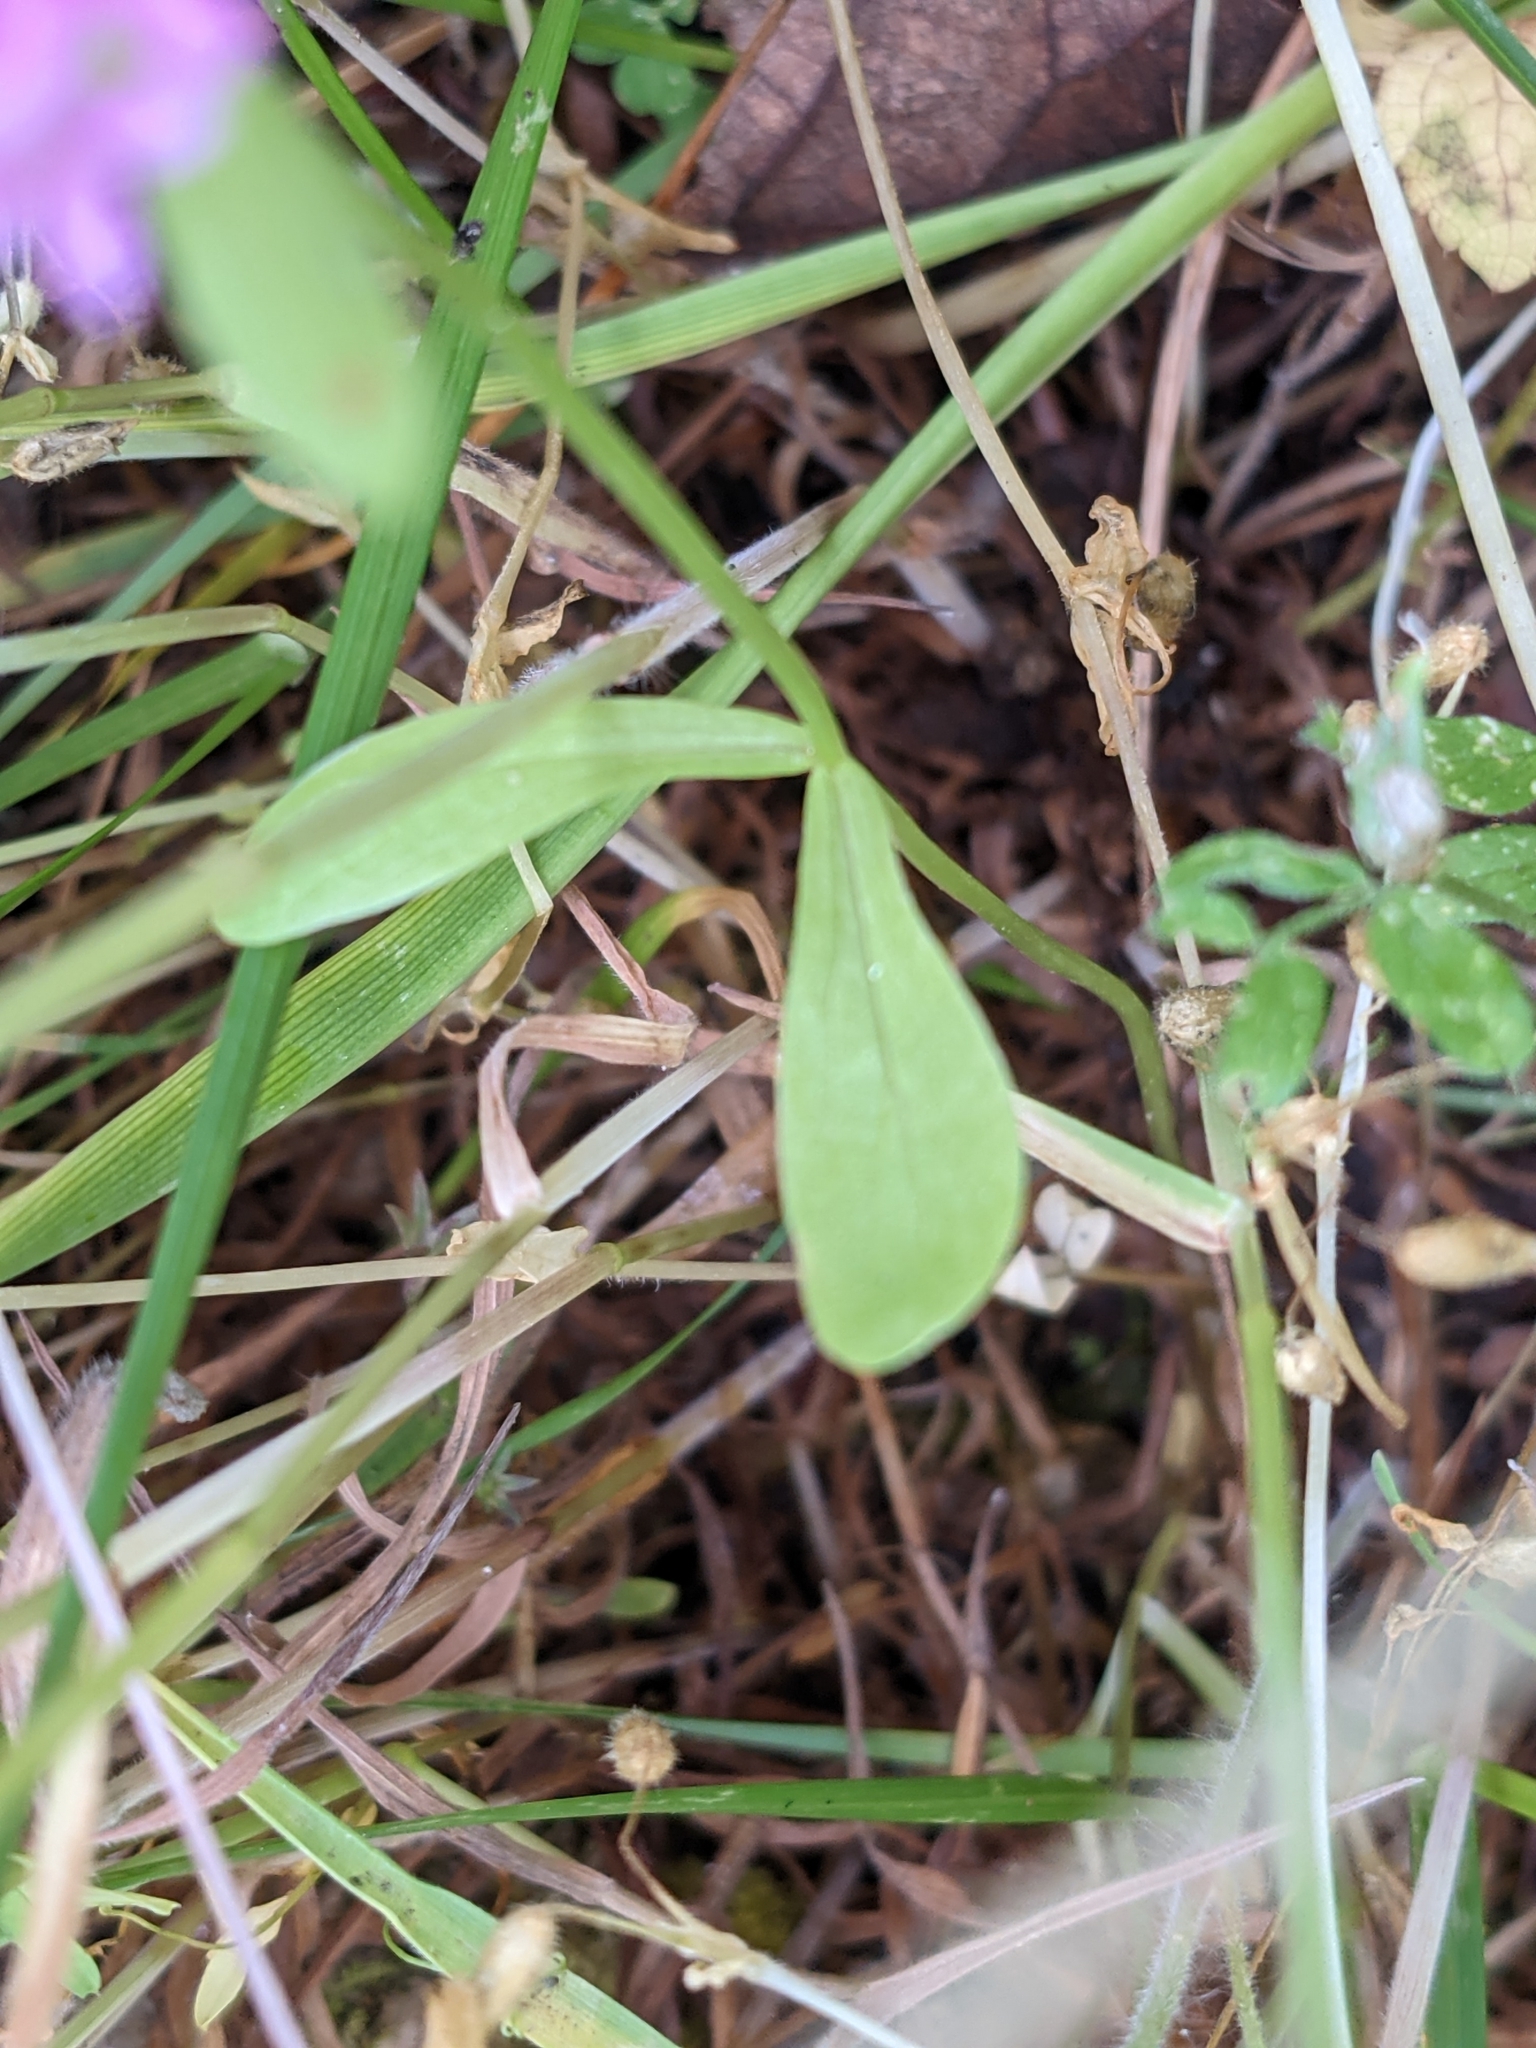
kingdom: Plantae
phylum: Tracheophyta
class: Magnoliopsida
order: Dipsacales
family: Caprifoliaceae
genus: Plectritis
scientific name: Plectritis congesta
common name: Pink plectritis
